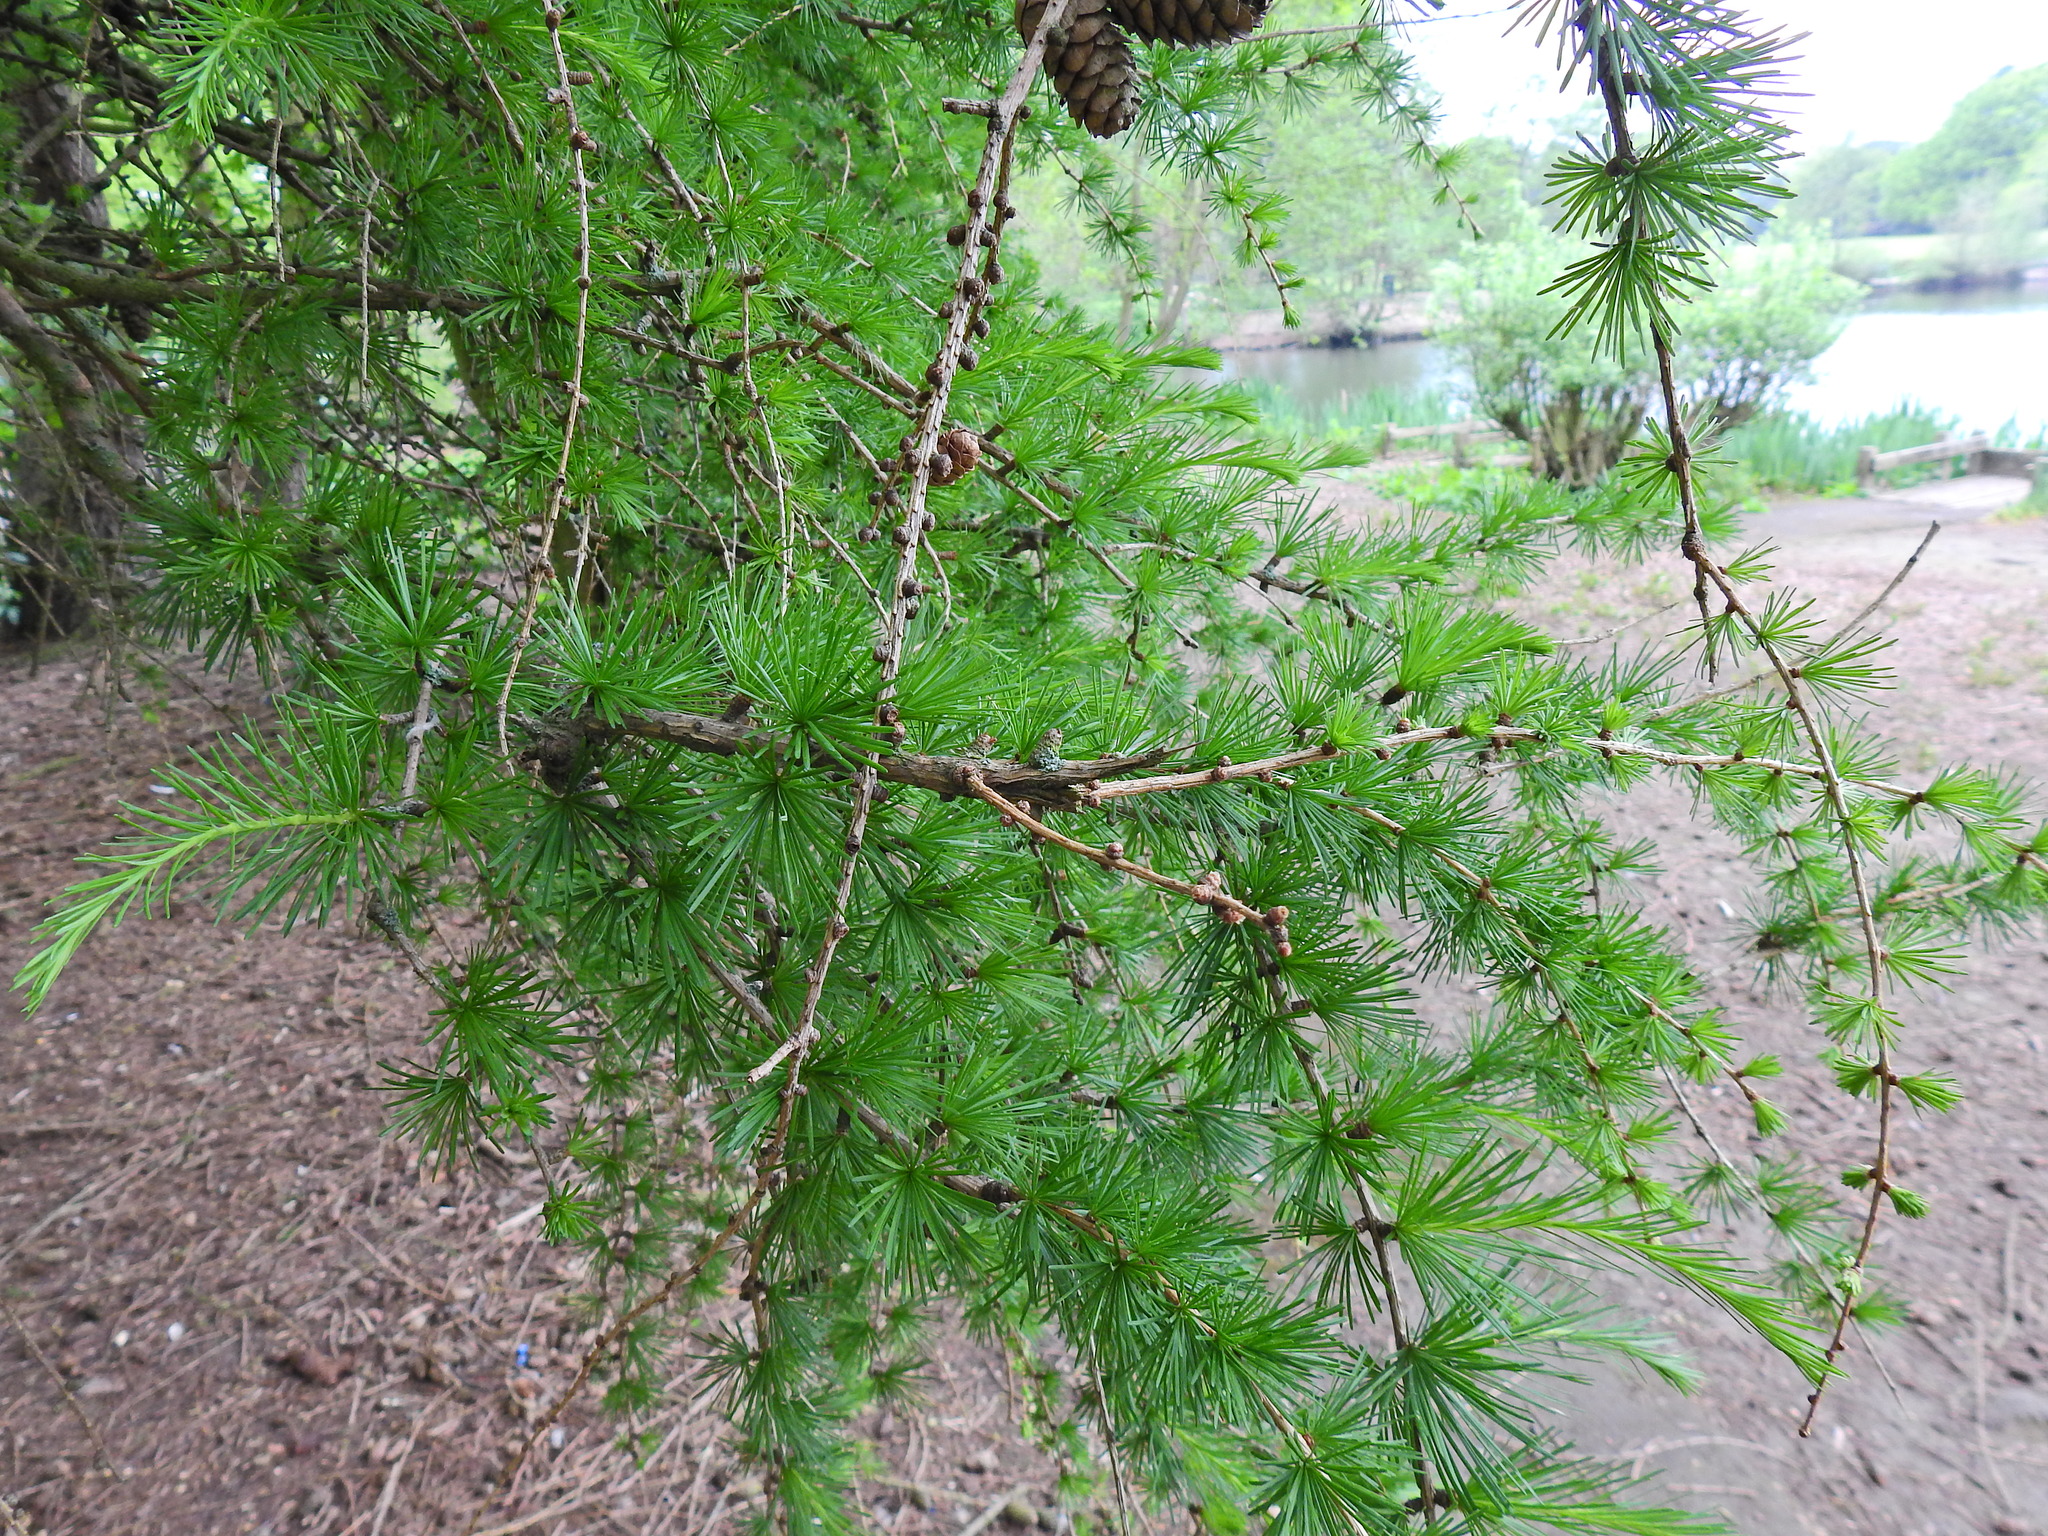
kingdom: Plantae
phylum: Tracheophyta
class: Pinopsida
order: Pinales
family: Pinaceae
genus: Larix
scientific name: Larix decidua
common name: European larch
